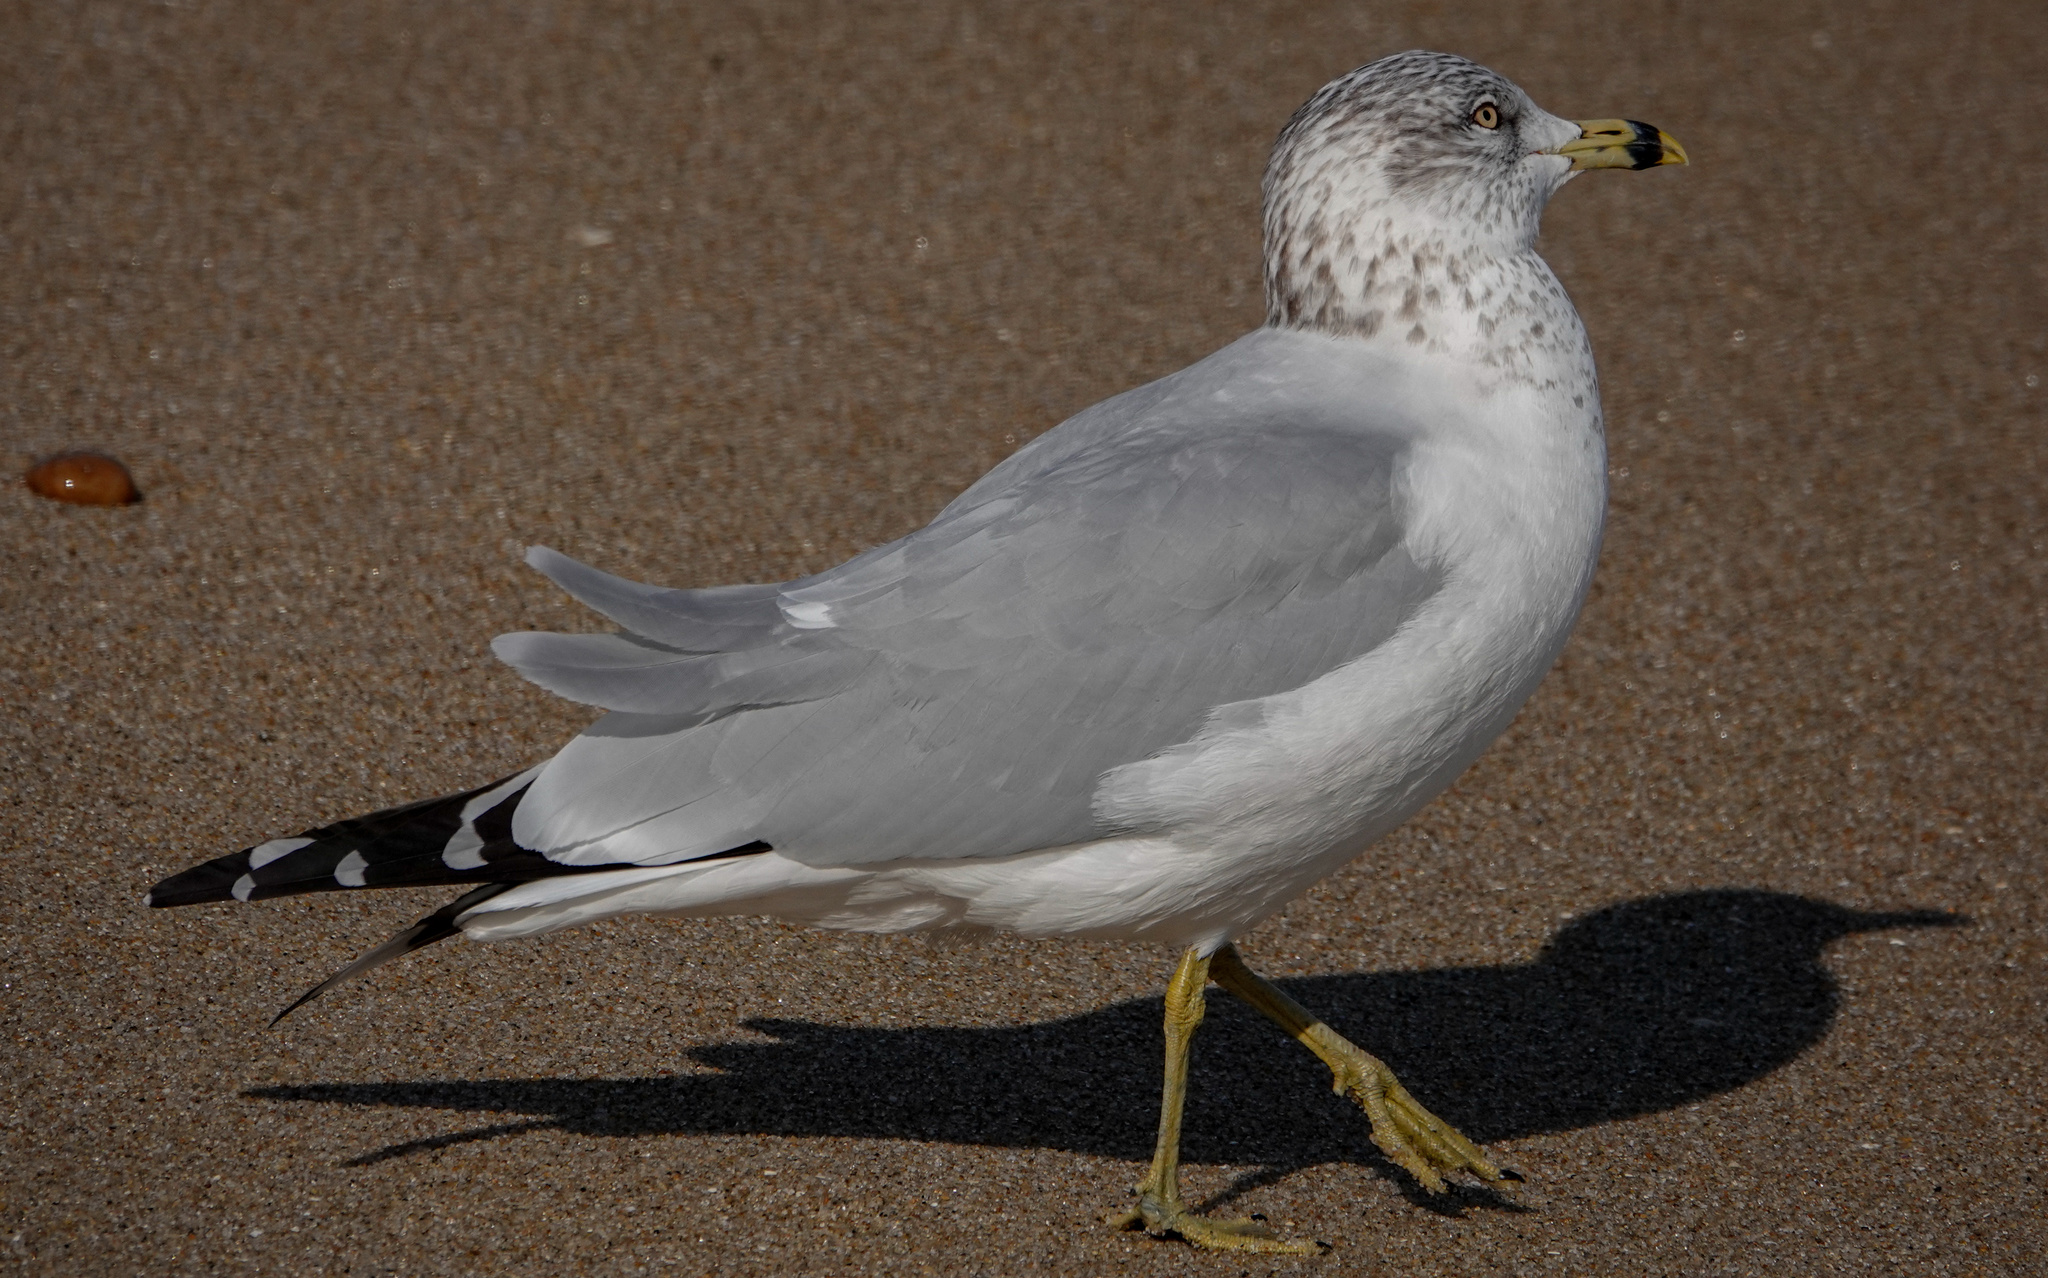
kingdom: Animalia
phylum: Chordata
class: Aves
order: Charadriiformes
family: Laridae
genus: Larus
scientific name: Larus delawarensis
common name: Ring-billed gull
